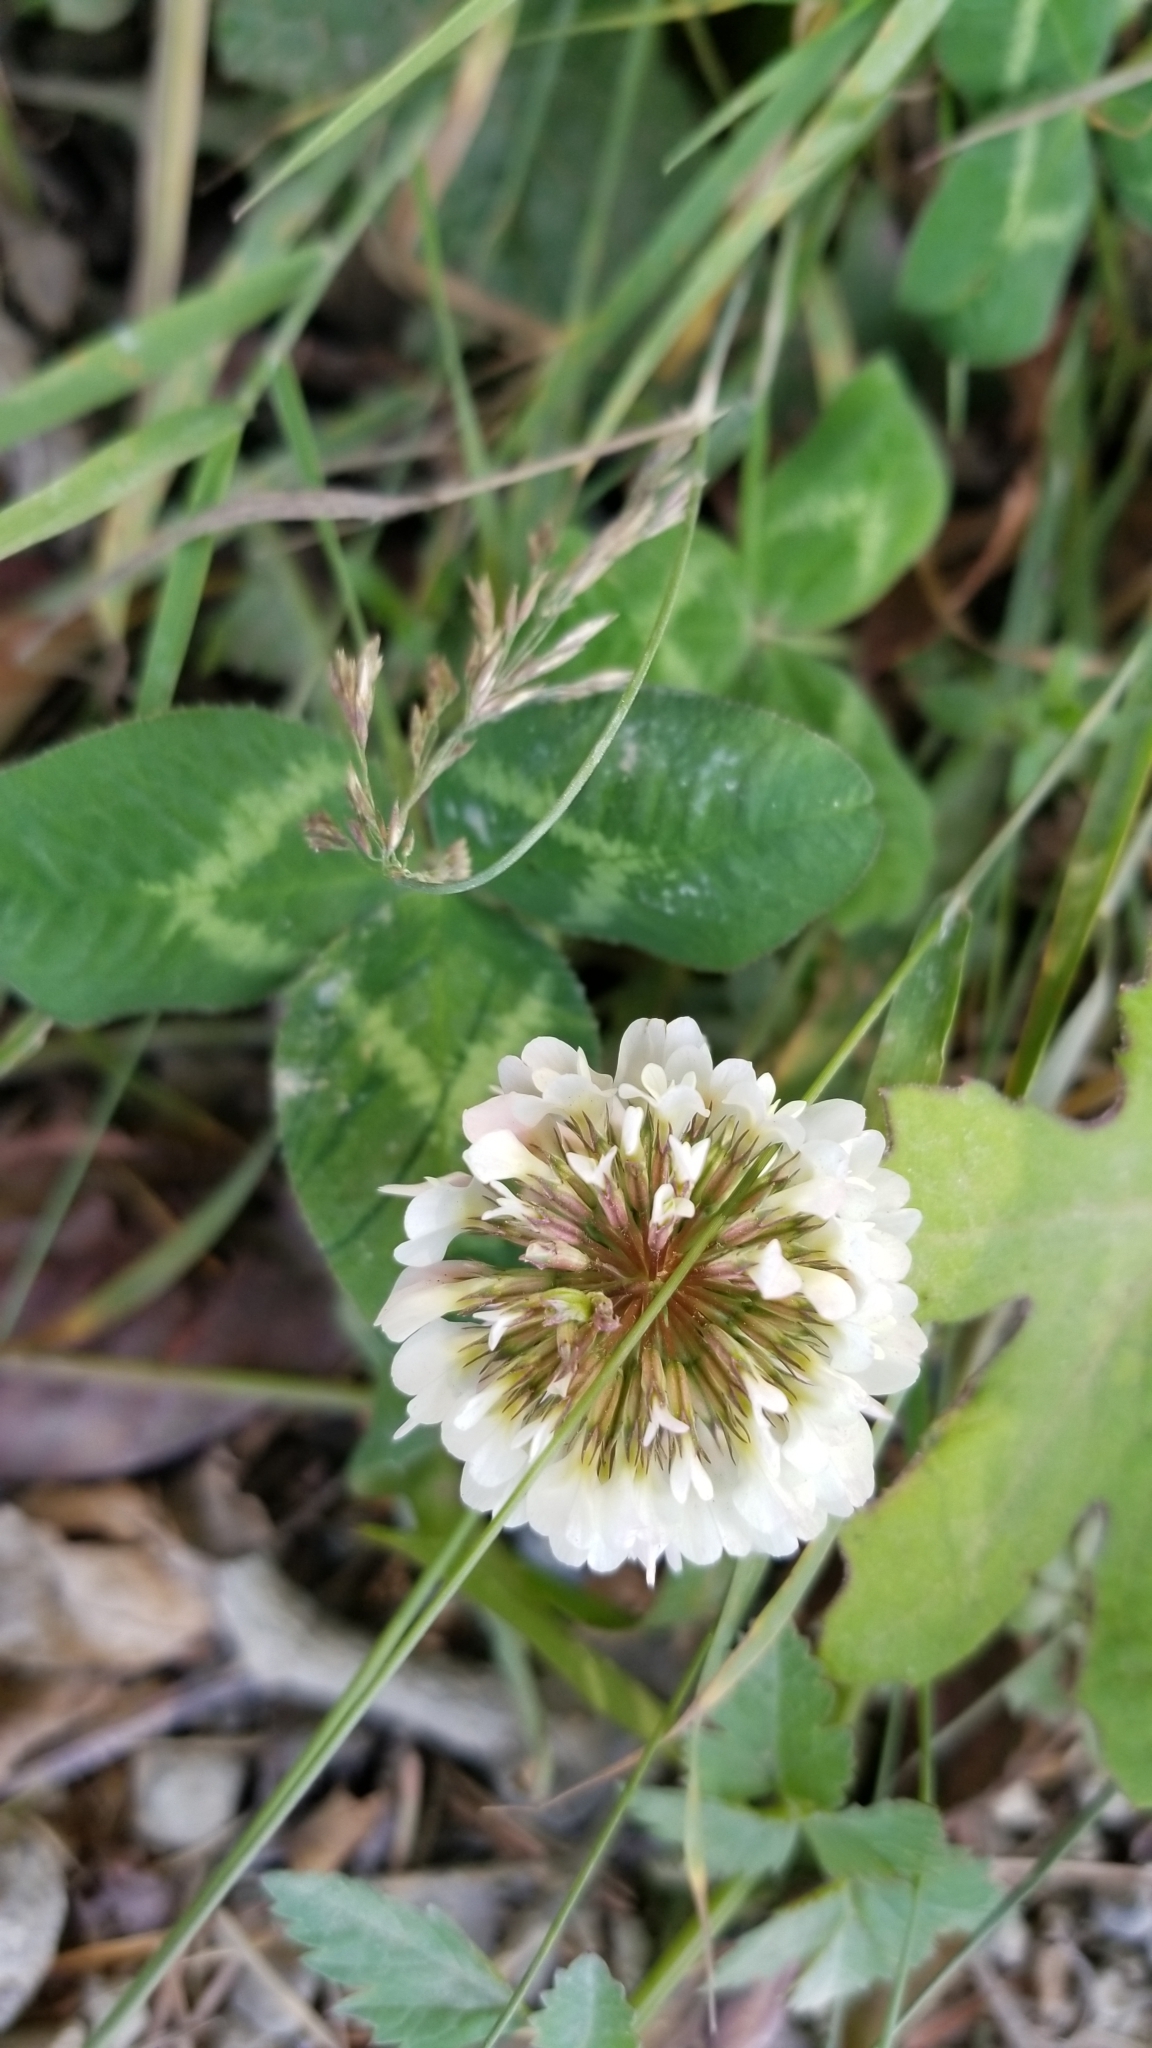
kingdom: Plantae
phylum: Tracheophyta
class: Magnoliopsida
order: Fabales
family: Fabaceae
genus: Trifolium
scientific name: Trifolium repens
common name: White clover
